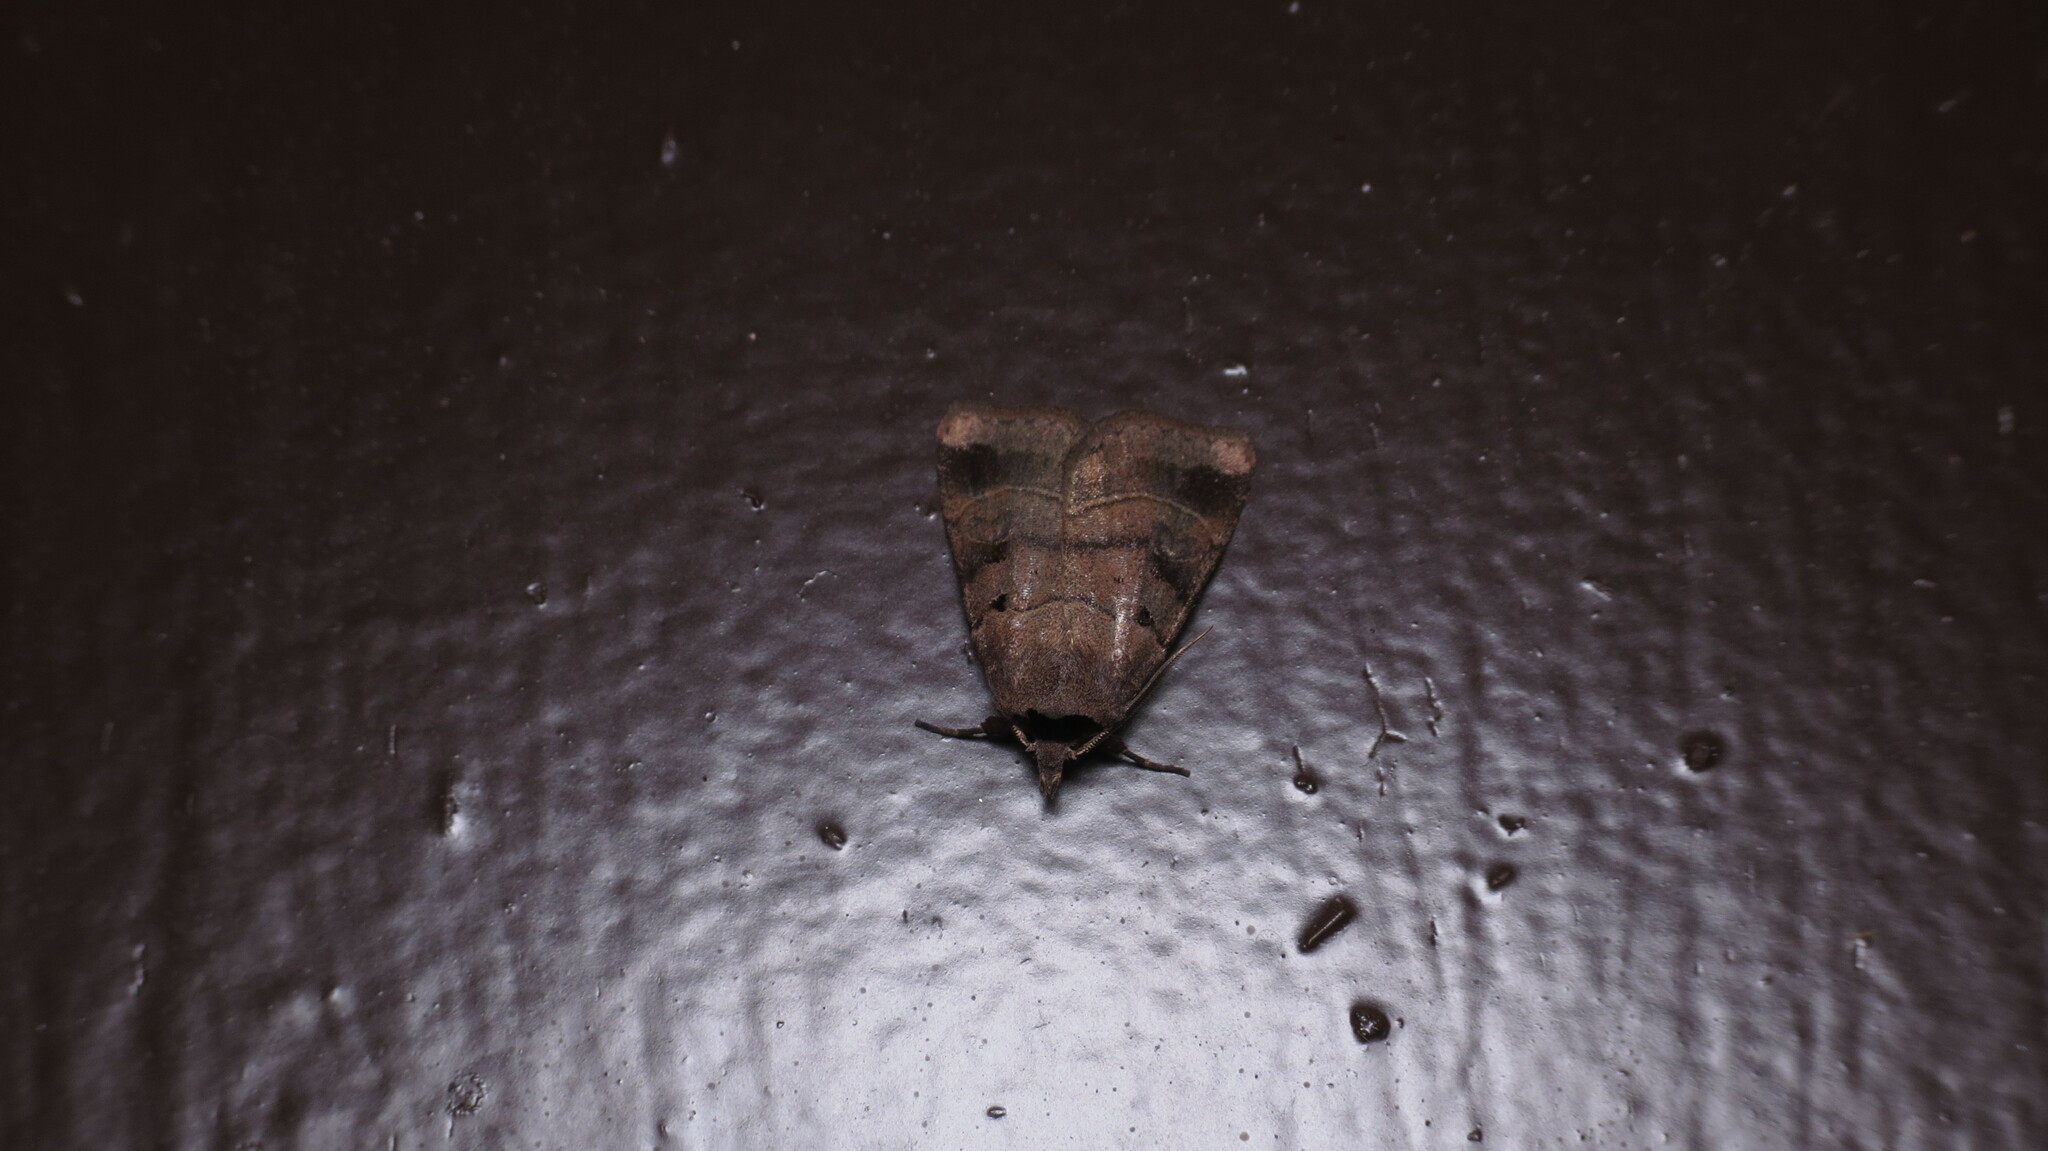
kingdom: Animalia
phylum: Arthropoda
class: Insecta
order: Lepidoptera
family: Noctuidae
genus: Agnorisma
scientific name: Agnorisma badinodis
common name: Pale-banded dart
